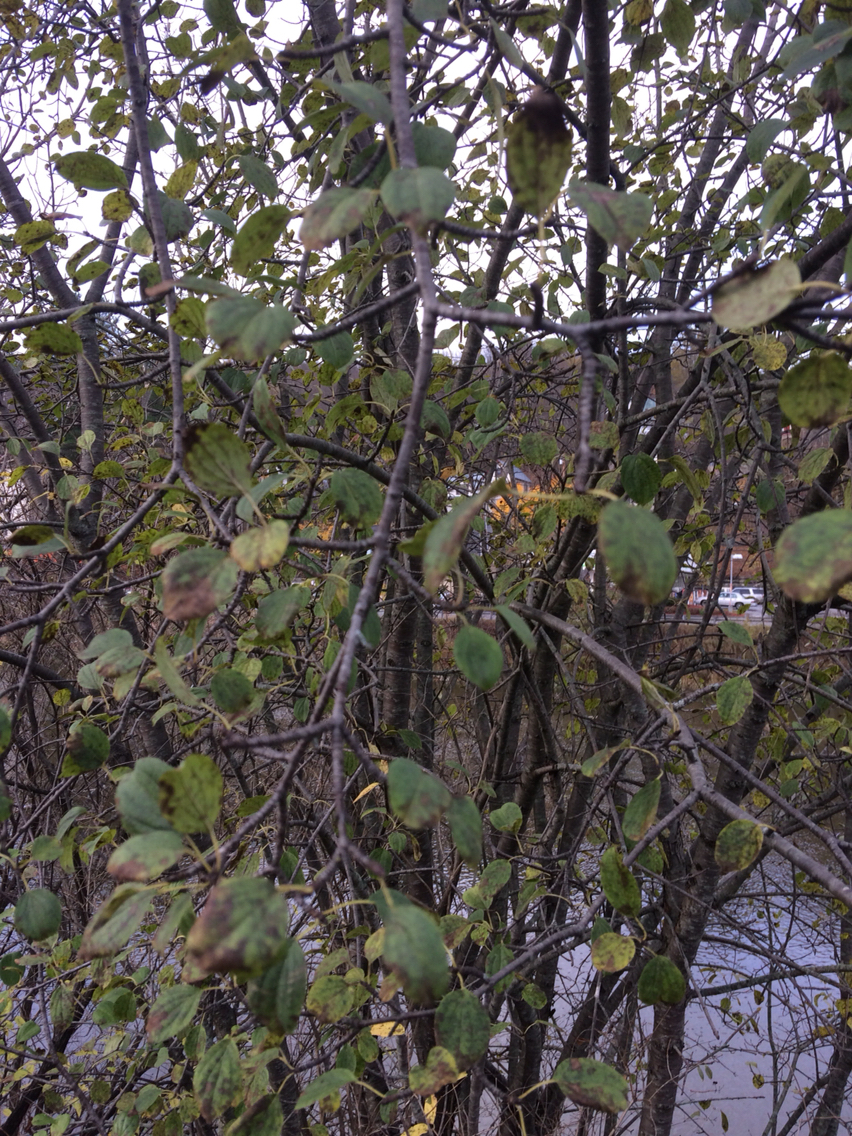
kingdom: Plantae
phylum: Tracheophyta
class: Magnoliopsida
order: Rosales
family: Rhamnaceae
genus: Rhamnus
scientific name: Rhamnus cathartica
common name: Common buckthorn
